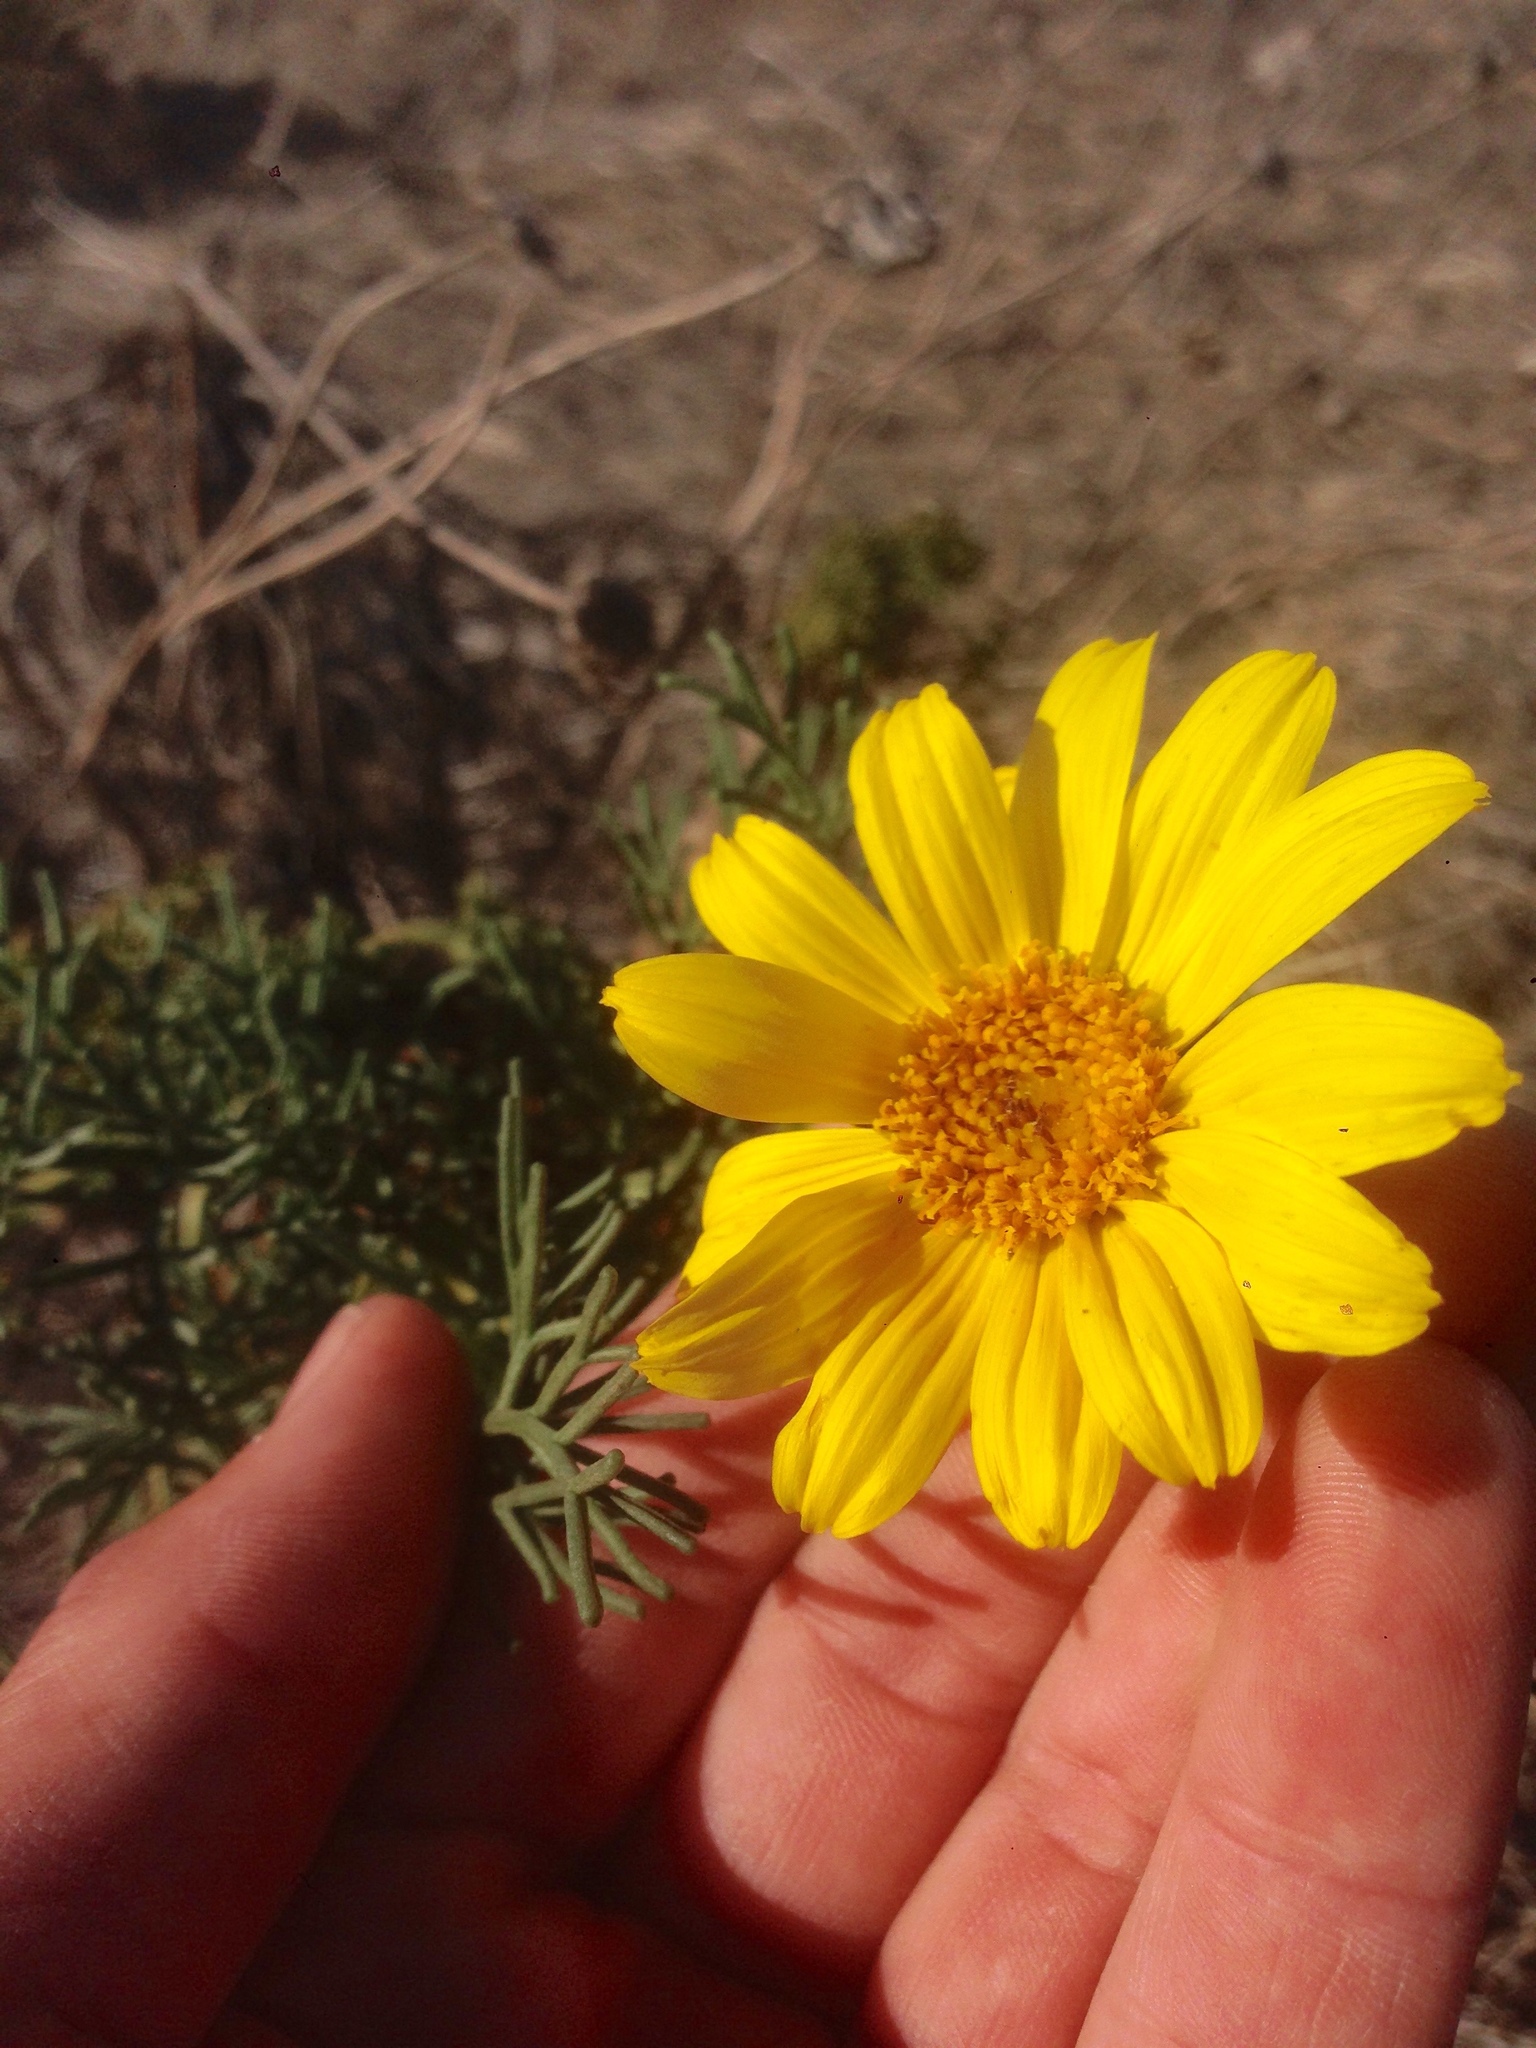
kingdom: Plantae
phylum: Tracheophyta
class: Magnoliopsida
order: Asterales
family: Asteraceae
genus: Coreopsis
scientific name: Coreopsis gigantea
